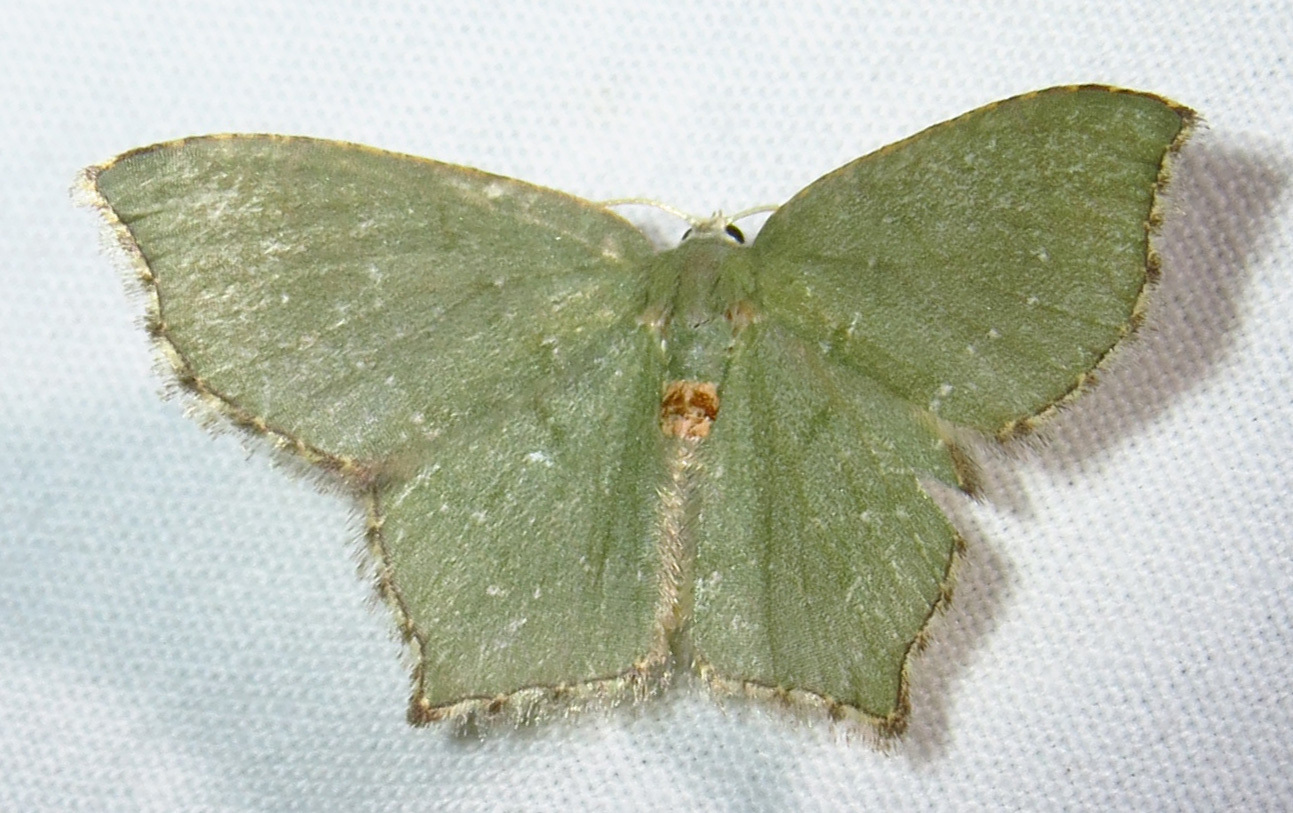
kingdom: Animalia
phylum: Arthropoda
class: Insecta
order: Lepidoptera
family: Geometridae
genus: Chloropteryx
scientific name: Chloropteryx tepperaria
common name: Angle winged emerald moth
